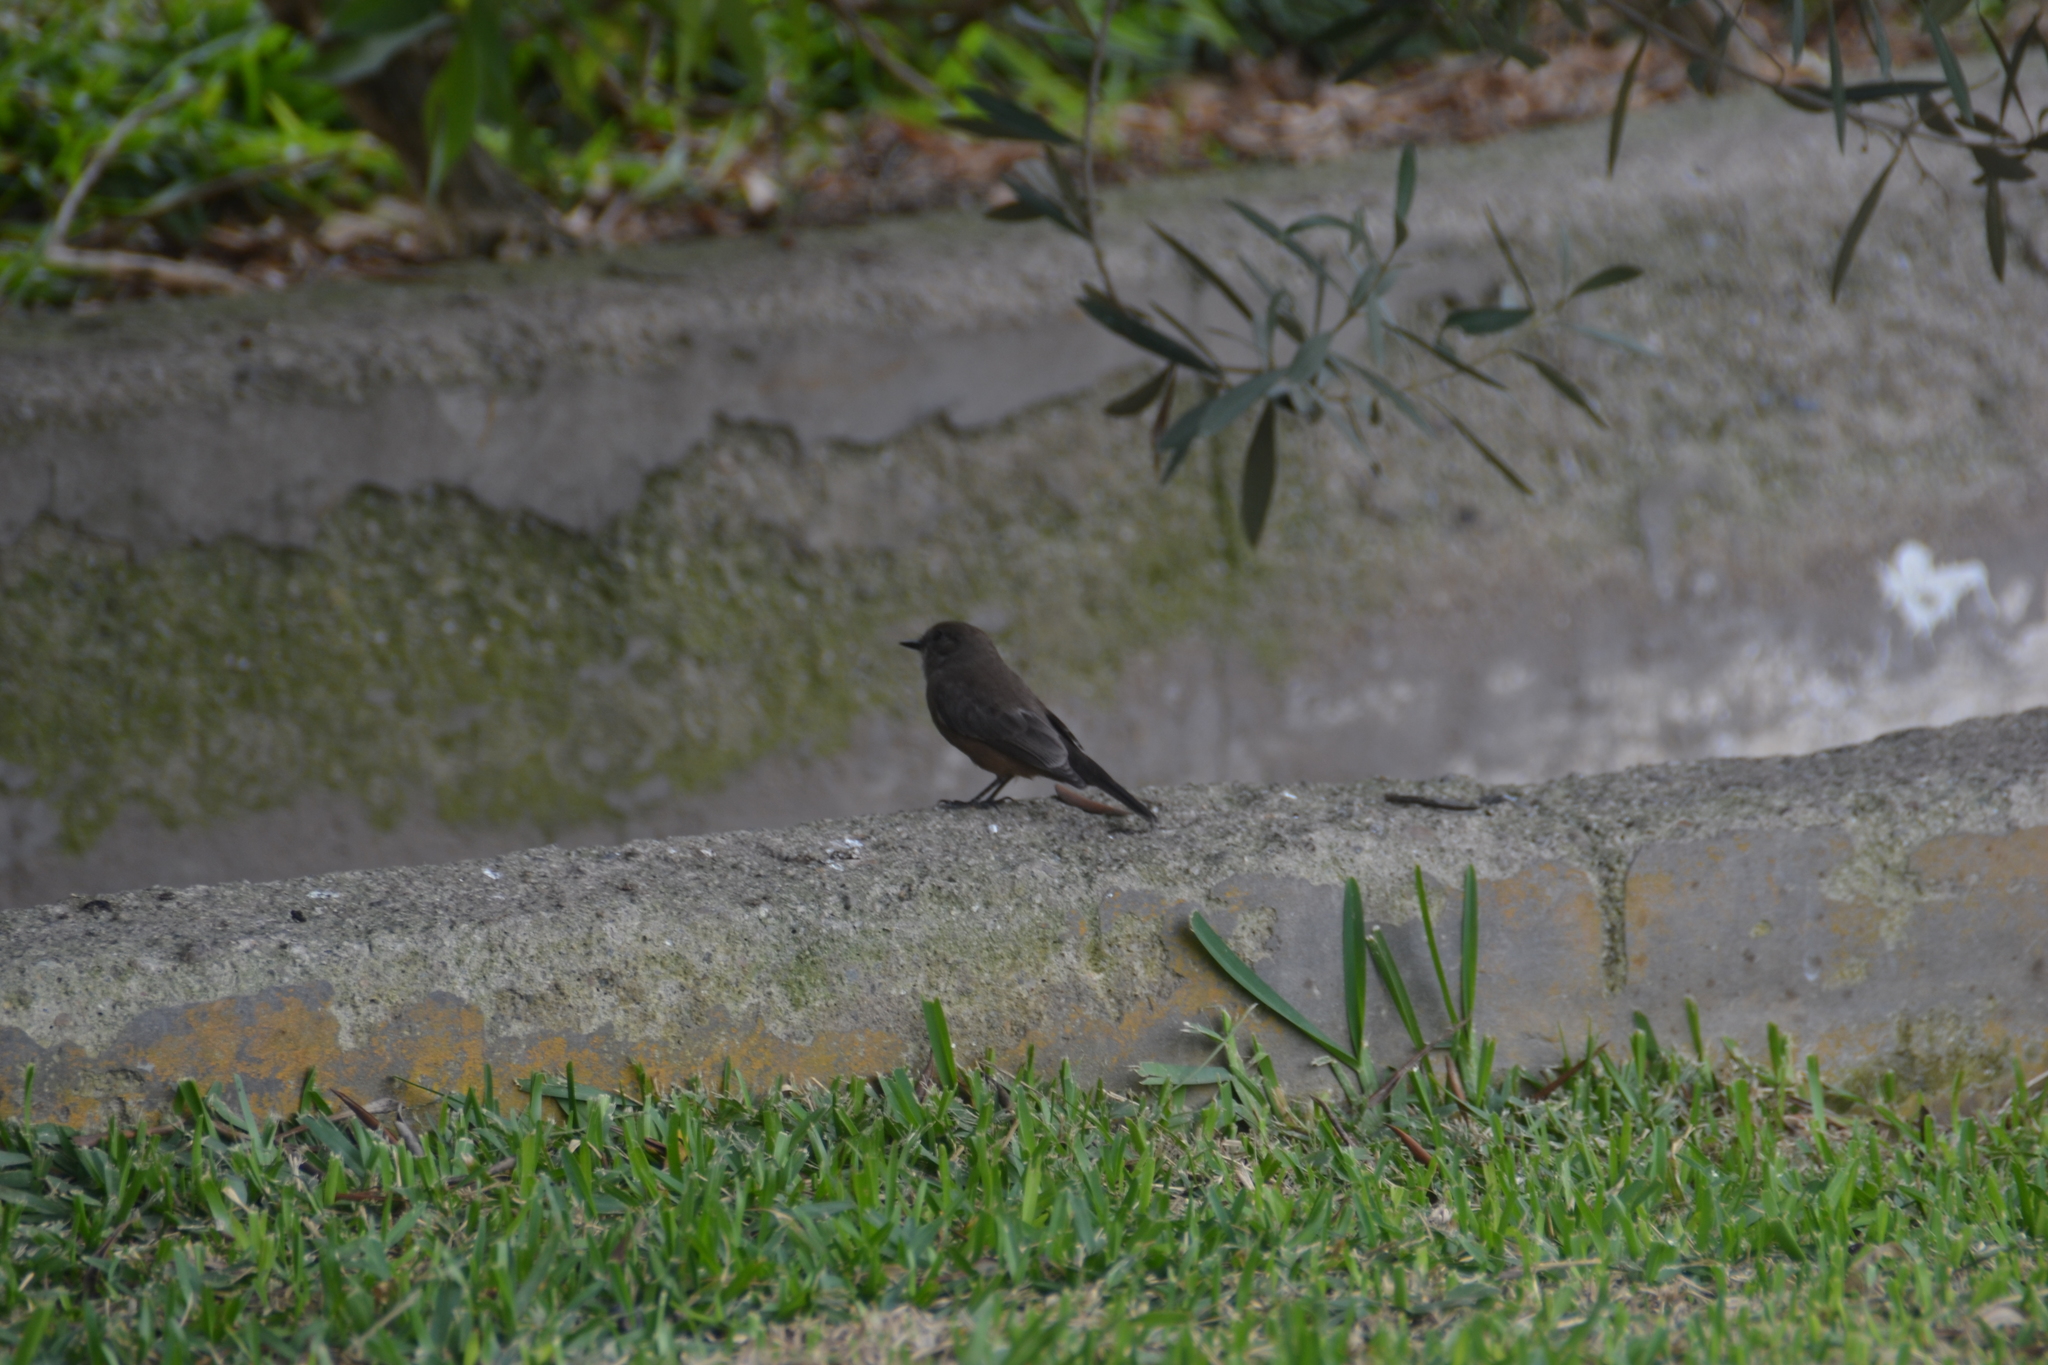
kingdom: Animalia
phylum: Chordata
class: Aves
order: Passeriformes
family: Passerellidae
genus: Zonotrichia
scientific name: Zonotrichia capensis
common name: Rufous-collared sparrow
